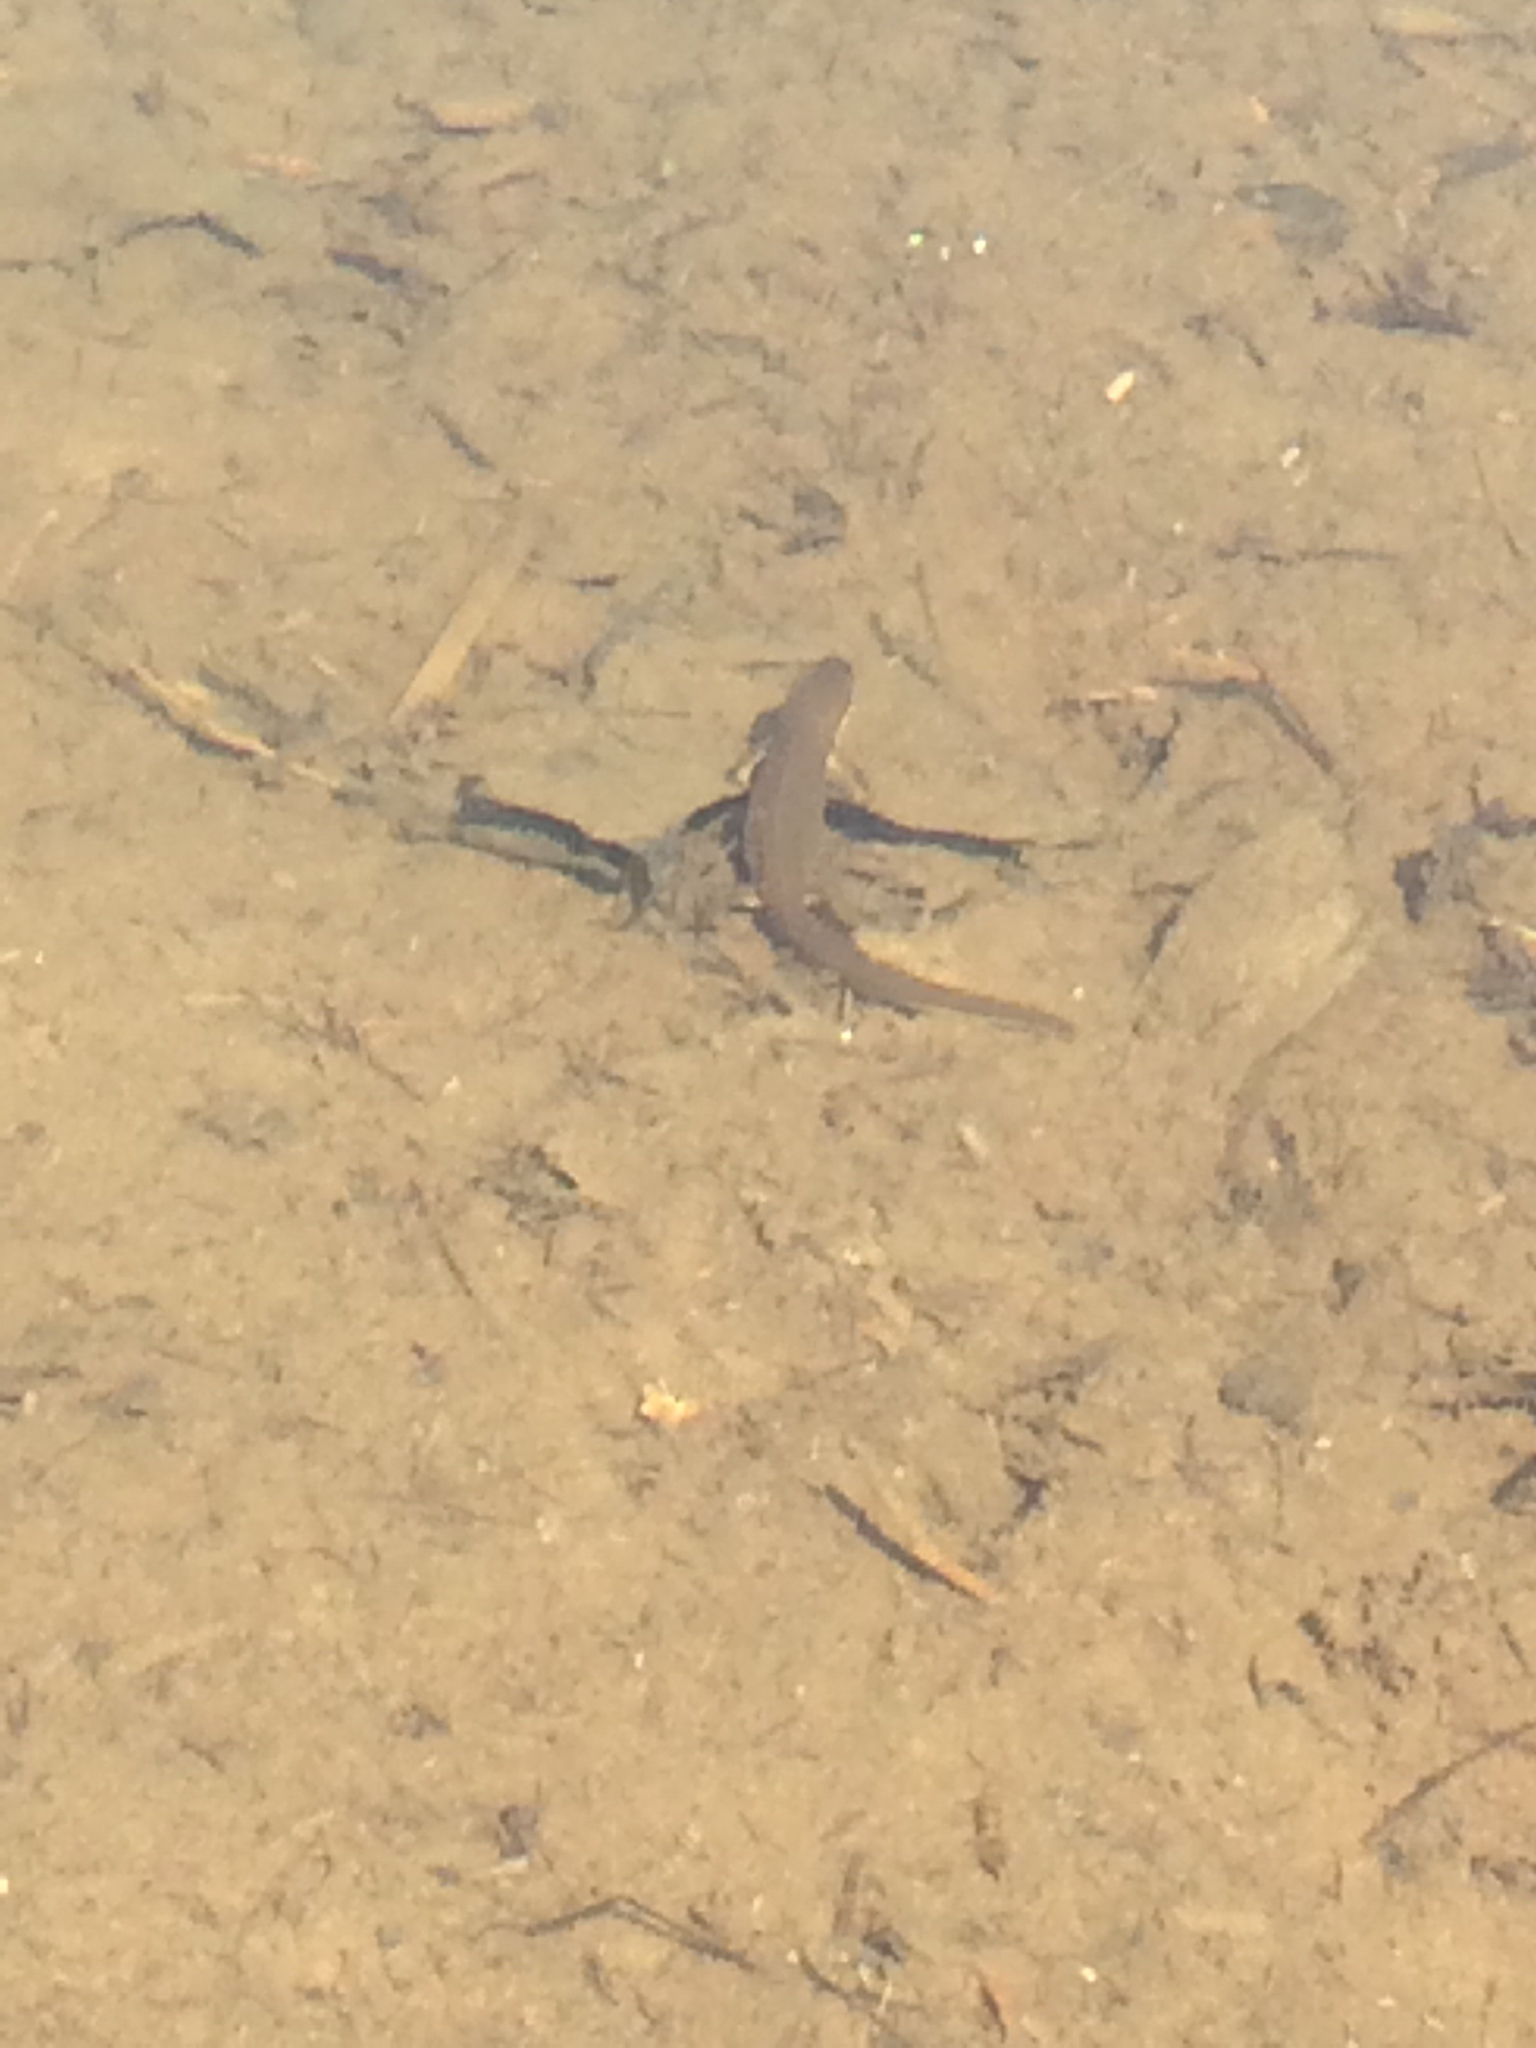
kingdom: Animalia
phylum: Chordata
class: Amphibia
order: Caudata
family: Salamandridae
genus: Notophthalmus
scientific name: Notophthalmus viridescens
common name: Eastern newt
